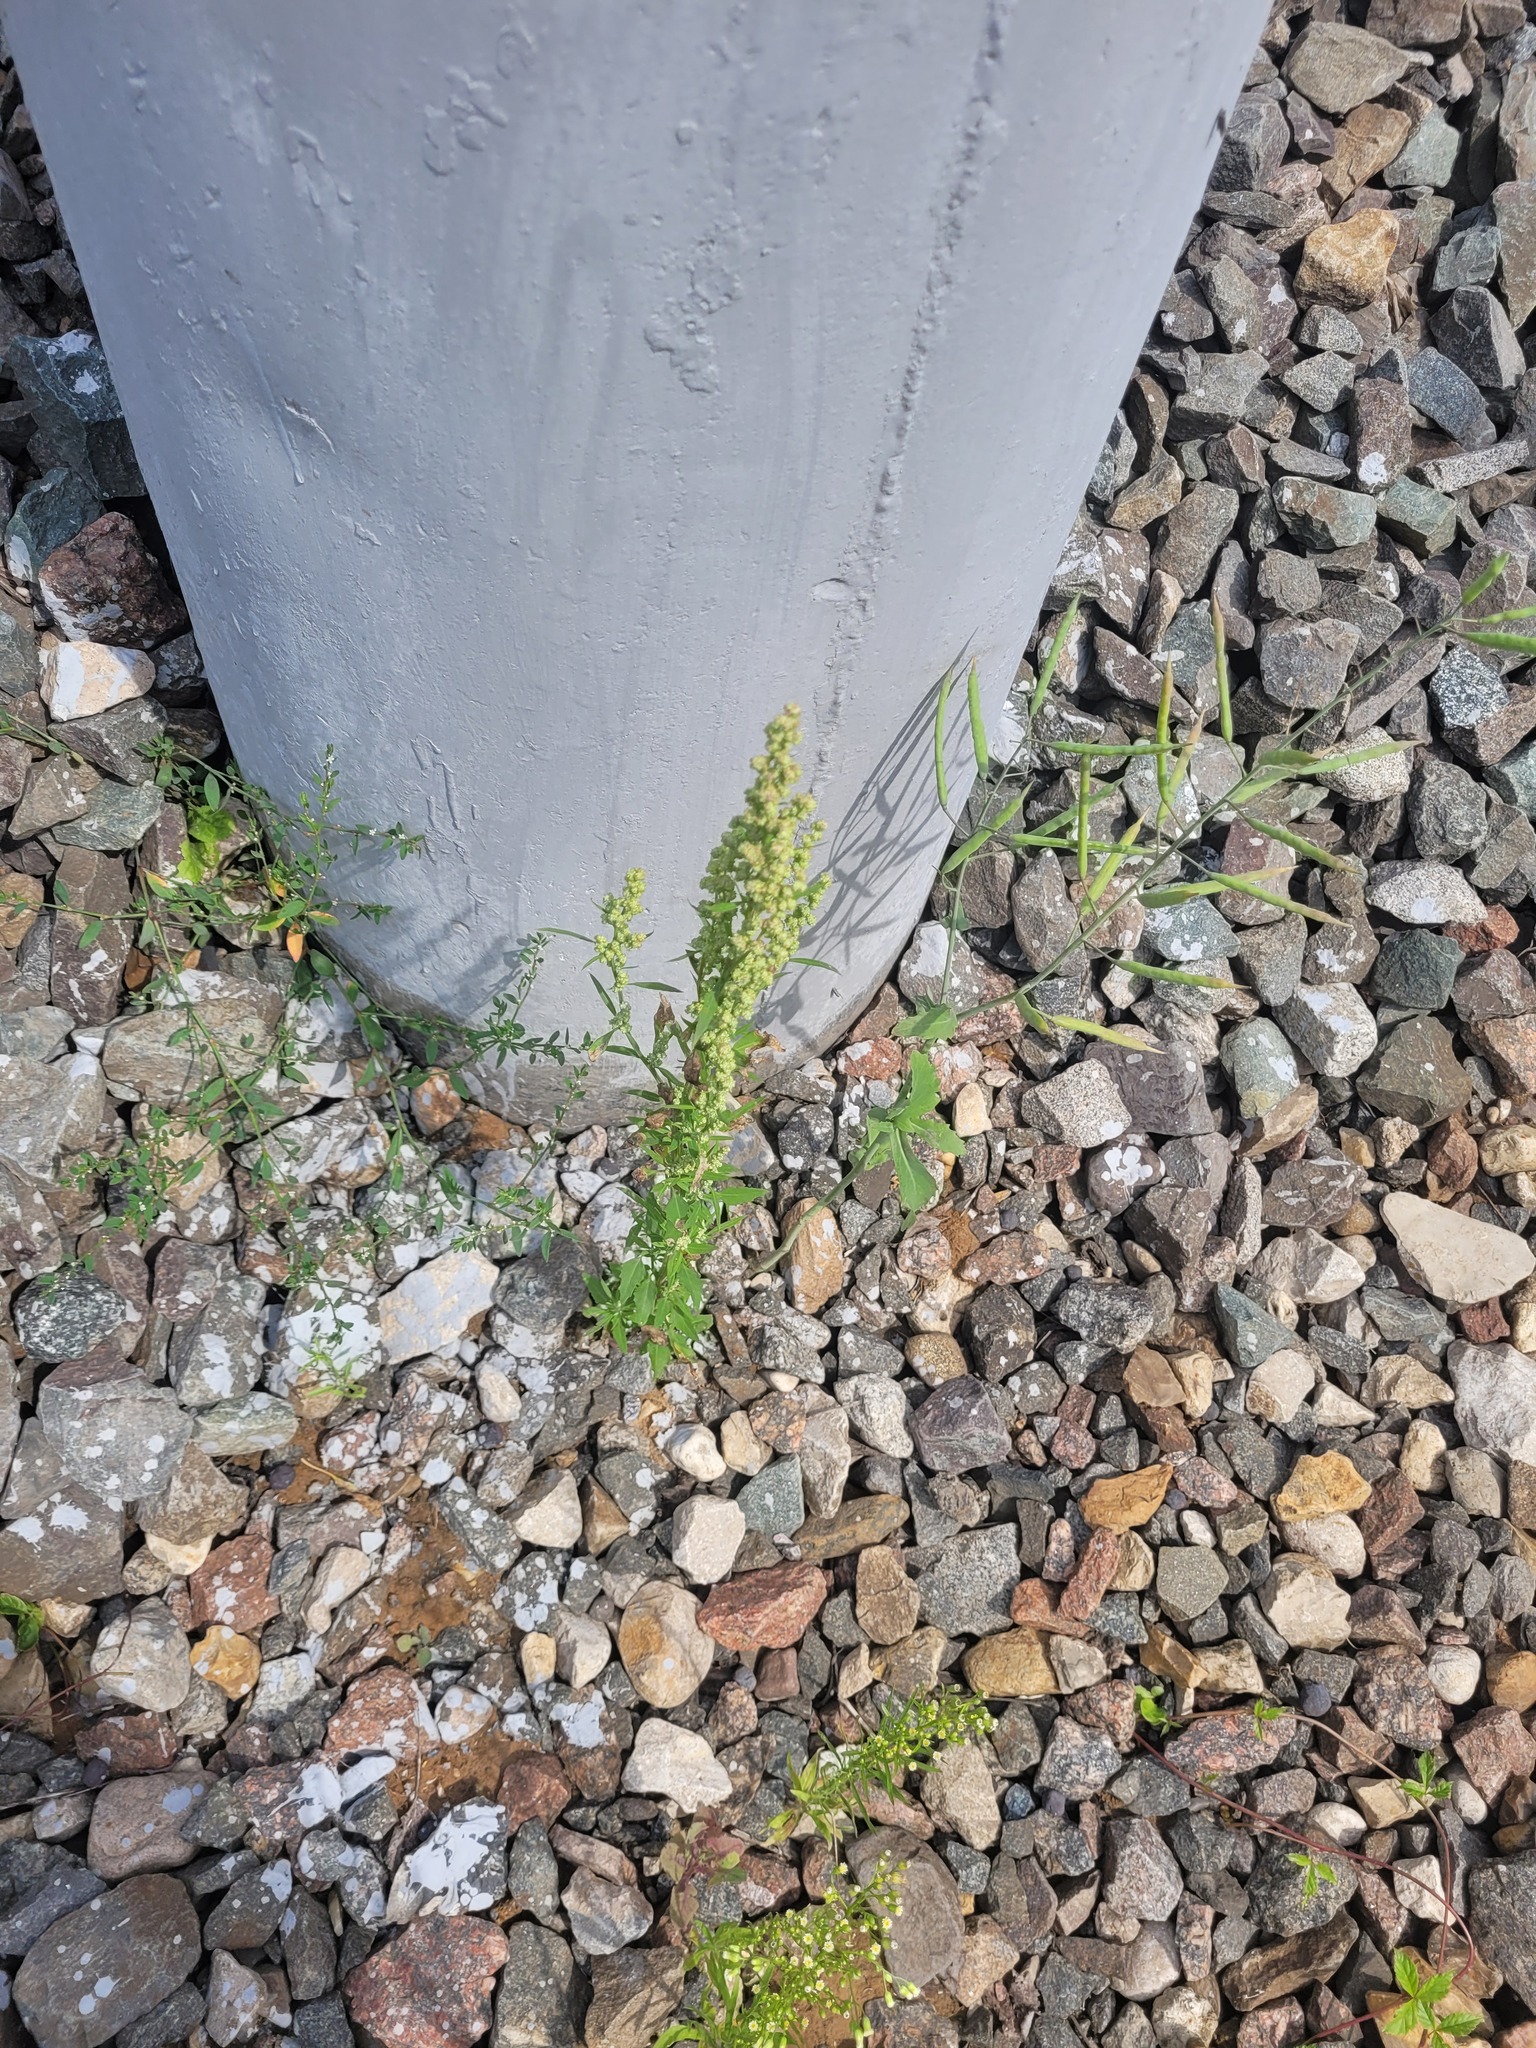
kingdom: Plantae
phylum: Tracheophyta
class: Magnoliopsida
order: Caryophyllales
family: Amaranthaceae
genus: Chenopodium
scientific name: Chenopodium album
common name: Fat-hen
